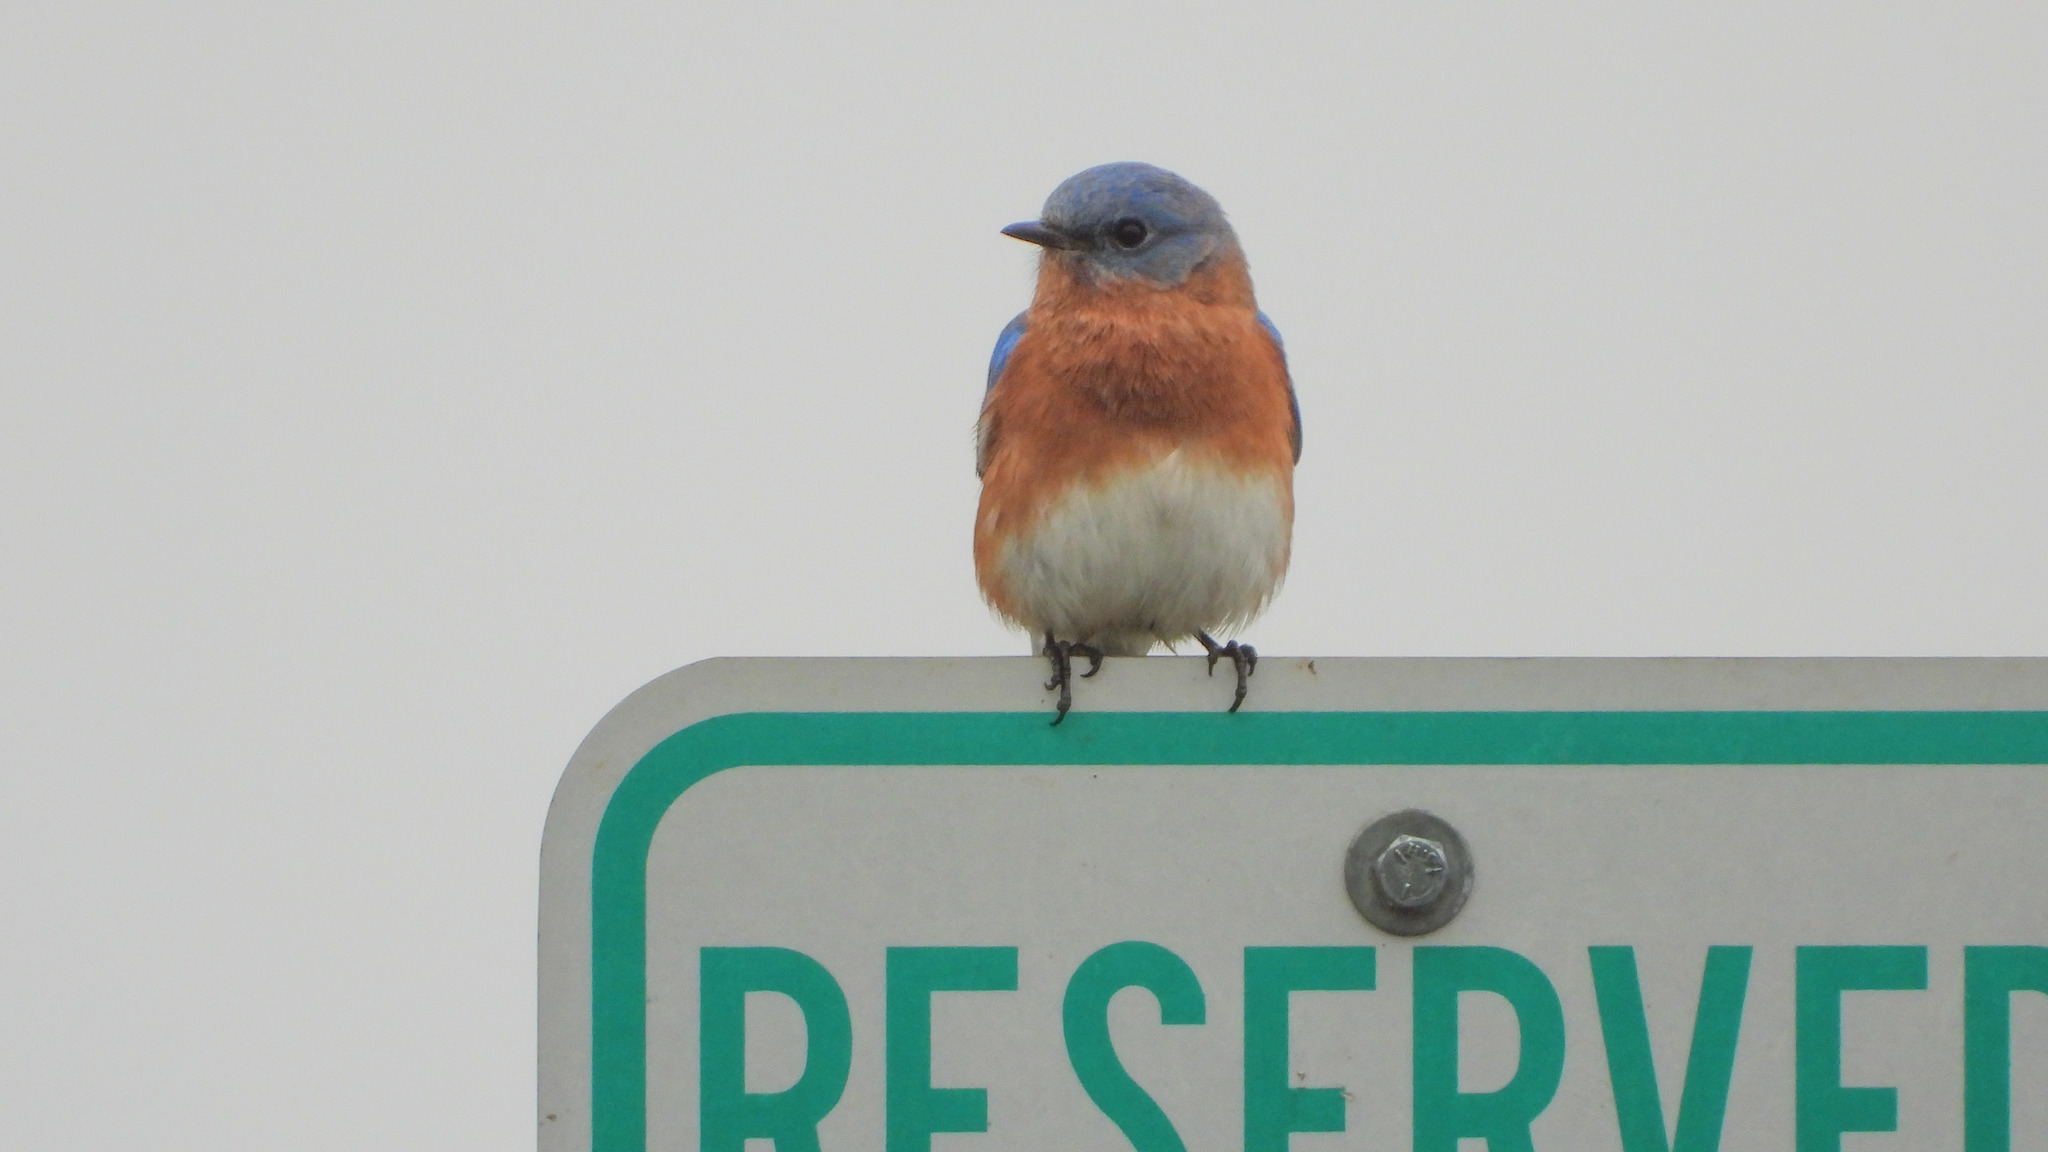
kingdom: Animalia
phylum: Chordata
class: Aves
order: Passeriformes
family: Turdidae
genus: Sialia
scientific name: Sialia sialis
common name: Eastern bluebird
